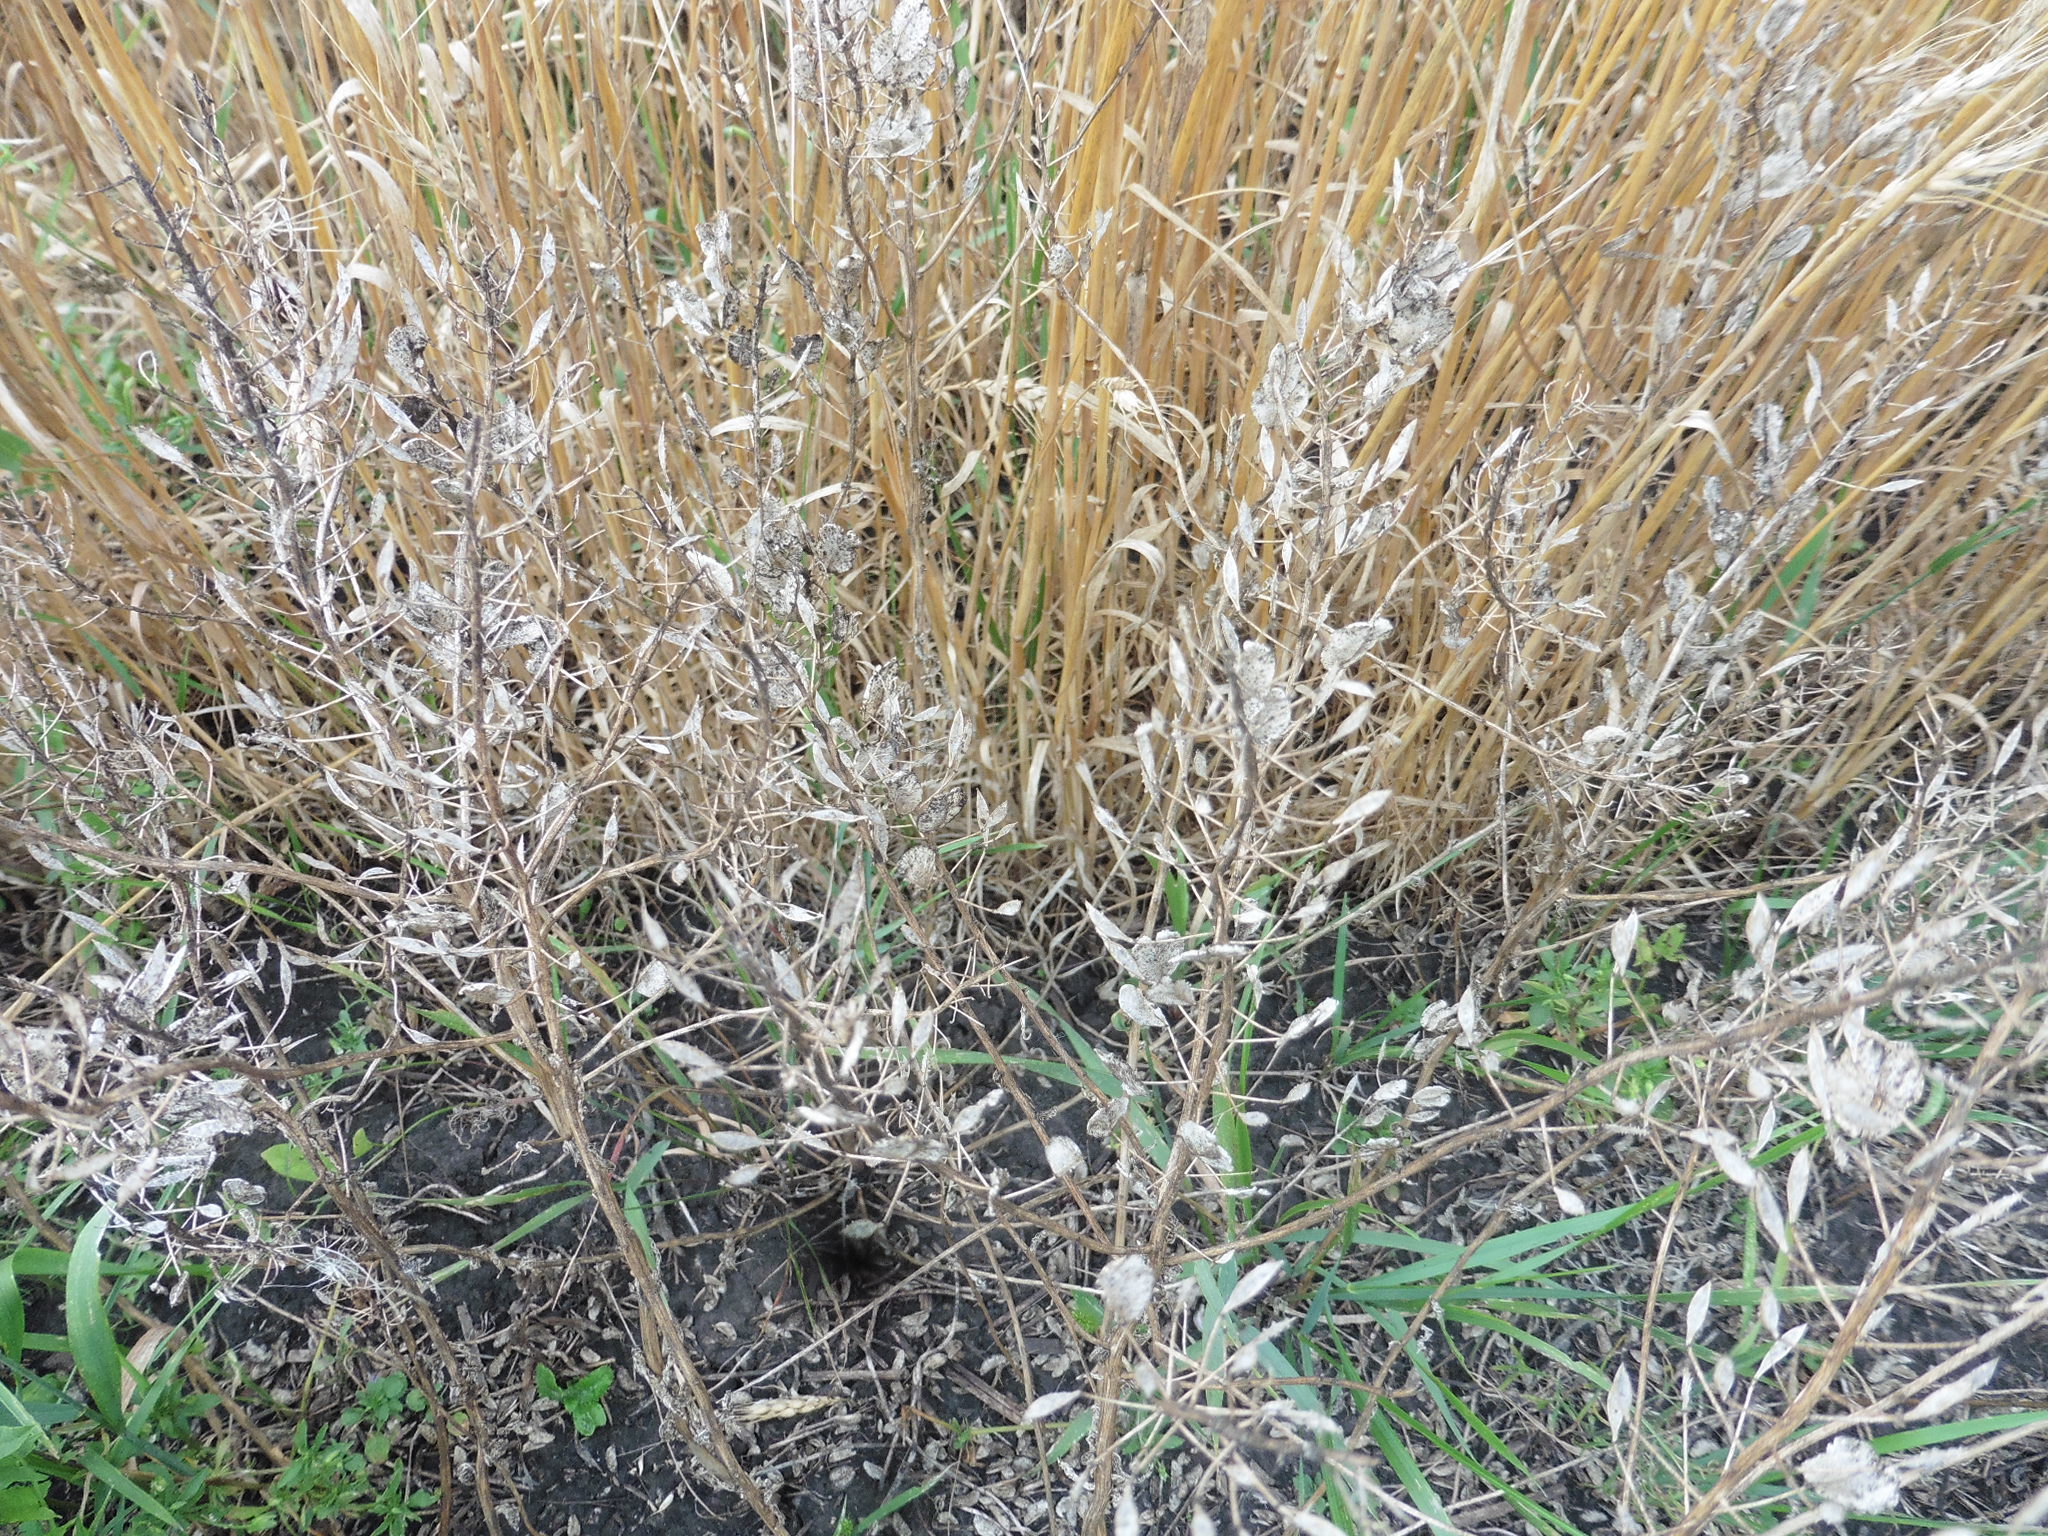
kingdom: Plantae
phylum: Tracheophyta
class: Magnoliopsida
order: Brassicales
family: Brassicaceae
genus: Thlaspi
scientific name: Thlaspi arvense
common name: Field pennycress
